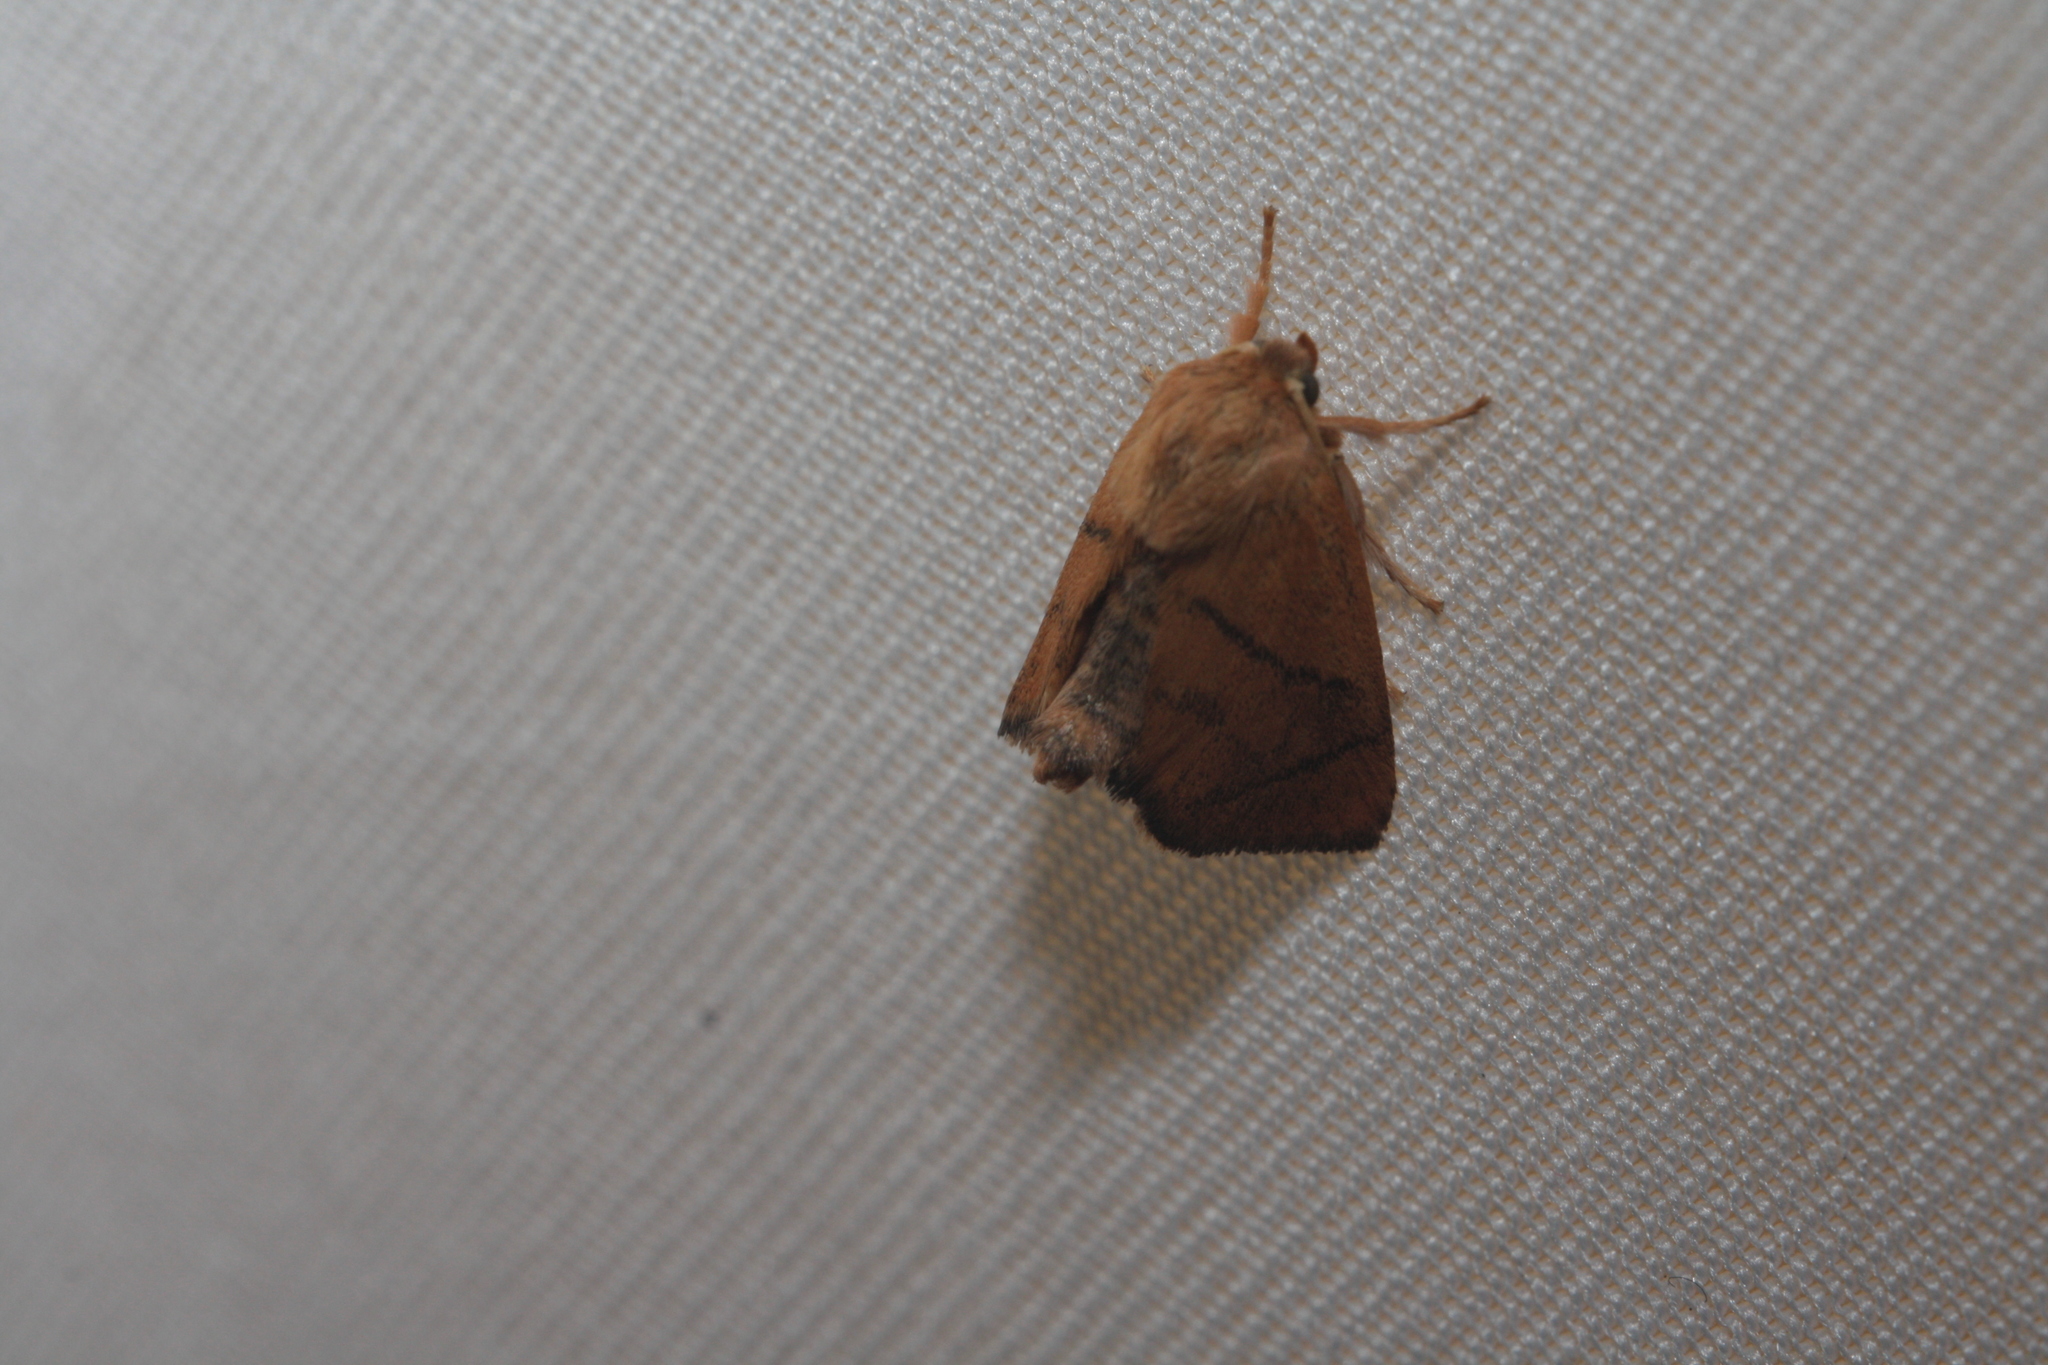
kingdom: Animalia
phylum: Arthropoda
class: Insecta
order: Lepidoptera
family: Limacodidae
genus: Apoda
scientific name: Apoda limacodes
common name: Festoon
